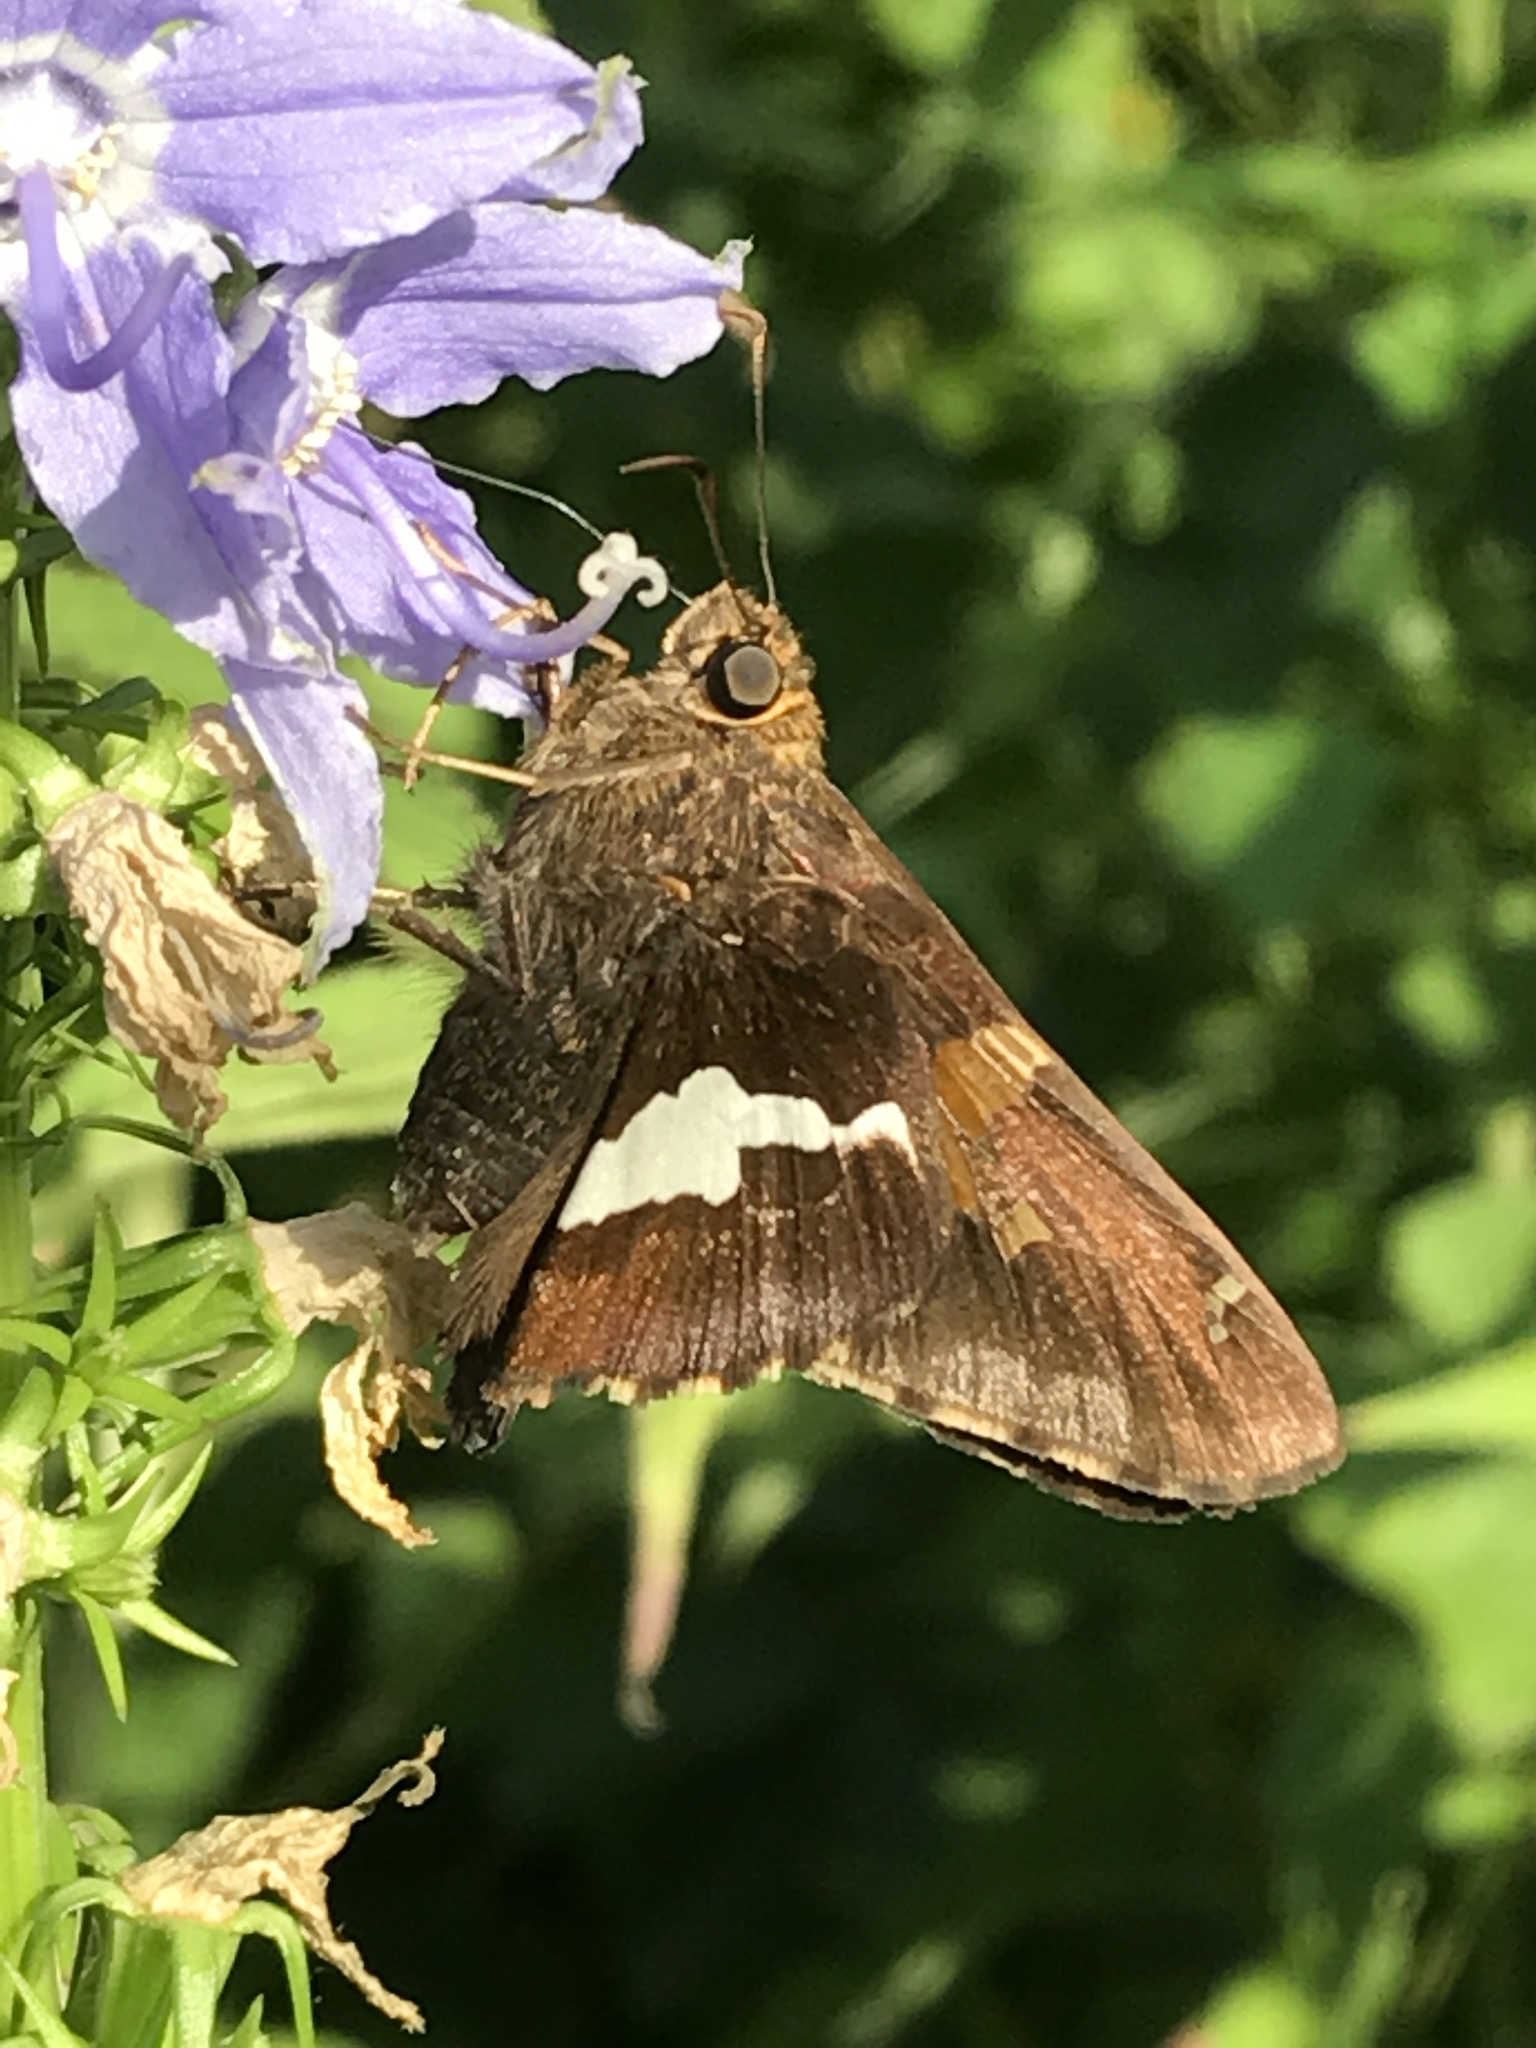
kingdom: Animalia
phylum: Arthropoda
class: Insecta
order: Lepidoptera
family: Hesperiidae
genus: Epargyreus
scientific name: Epargyreus clarus
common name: Silver-spotted skipper
